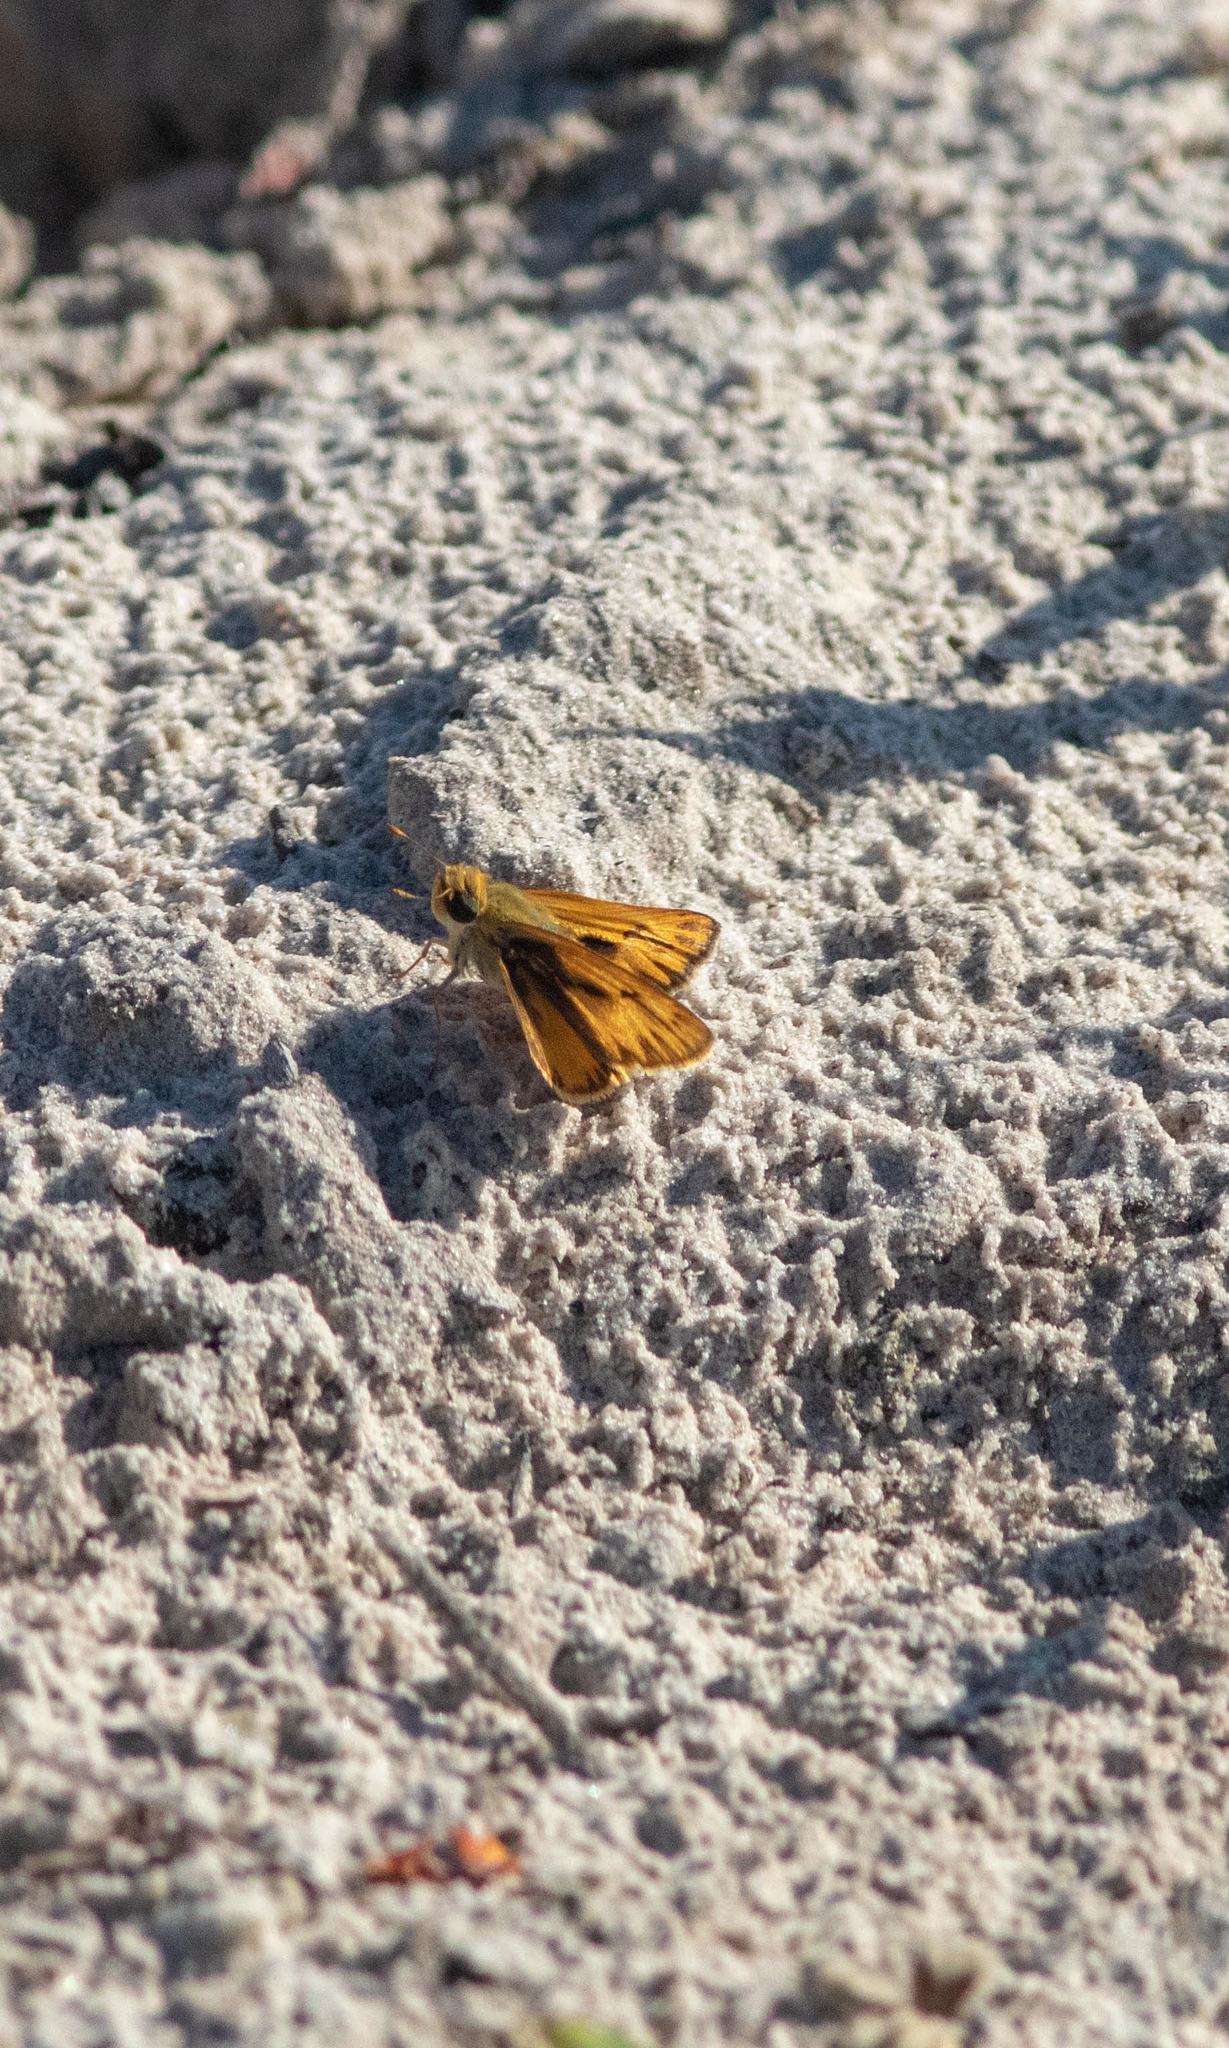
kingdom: Animalia
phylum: Arthropoda
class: Insecta
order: Lepidoptera
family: Hesperiidae
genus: Hylephila
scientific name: Hylephila phyleus
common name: Fiery skipper
